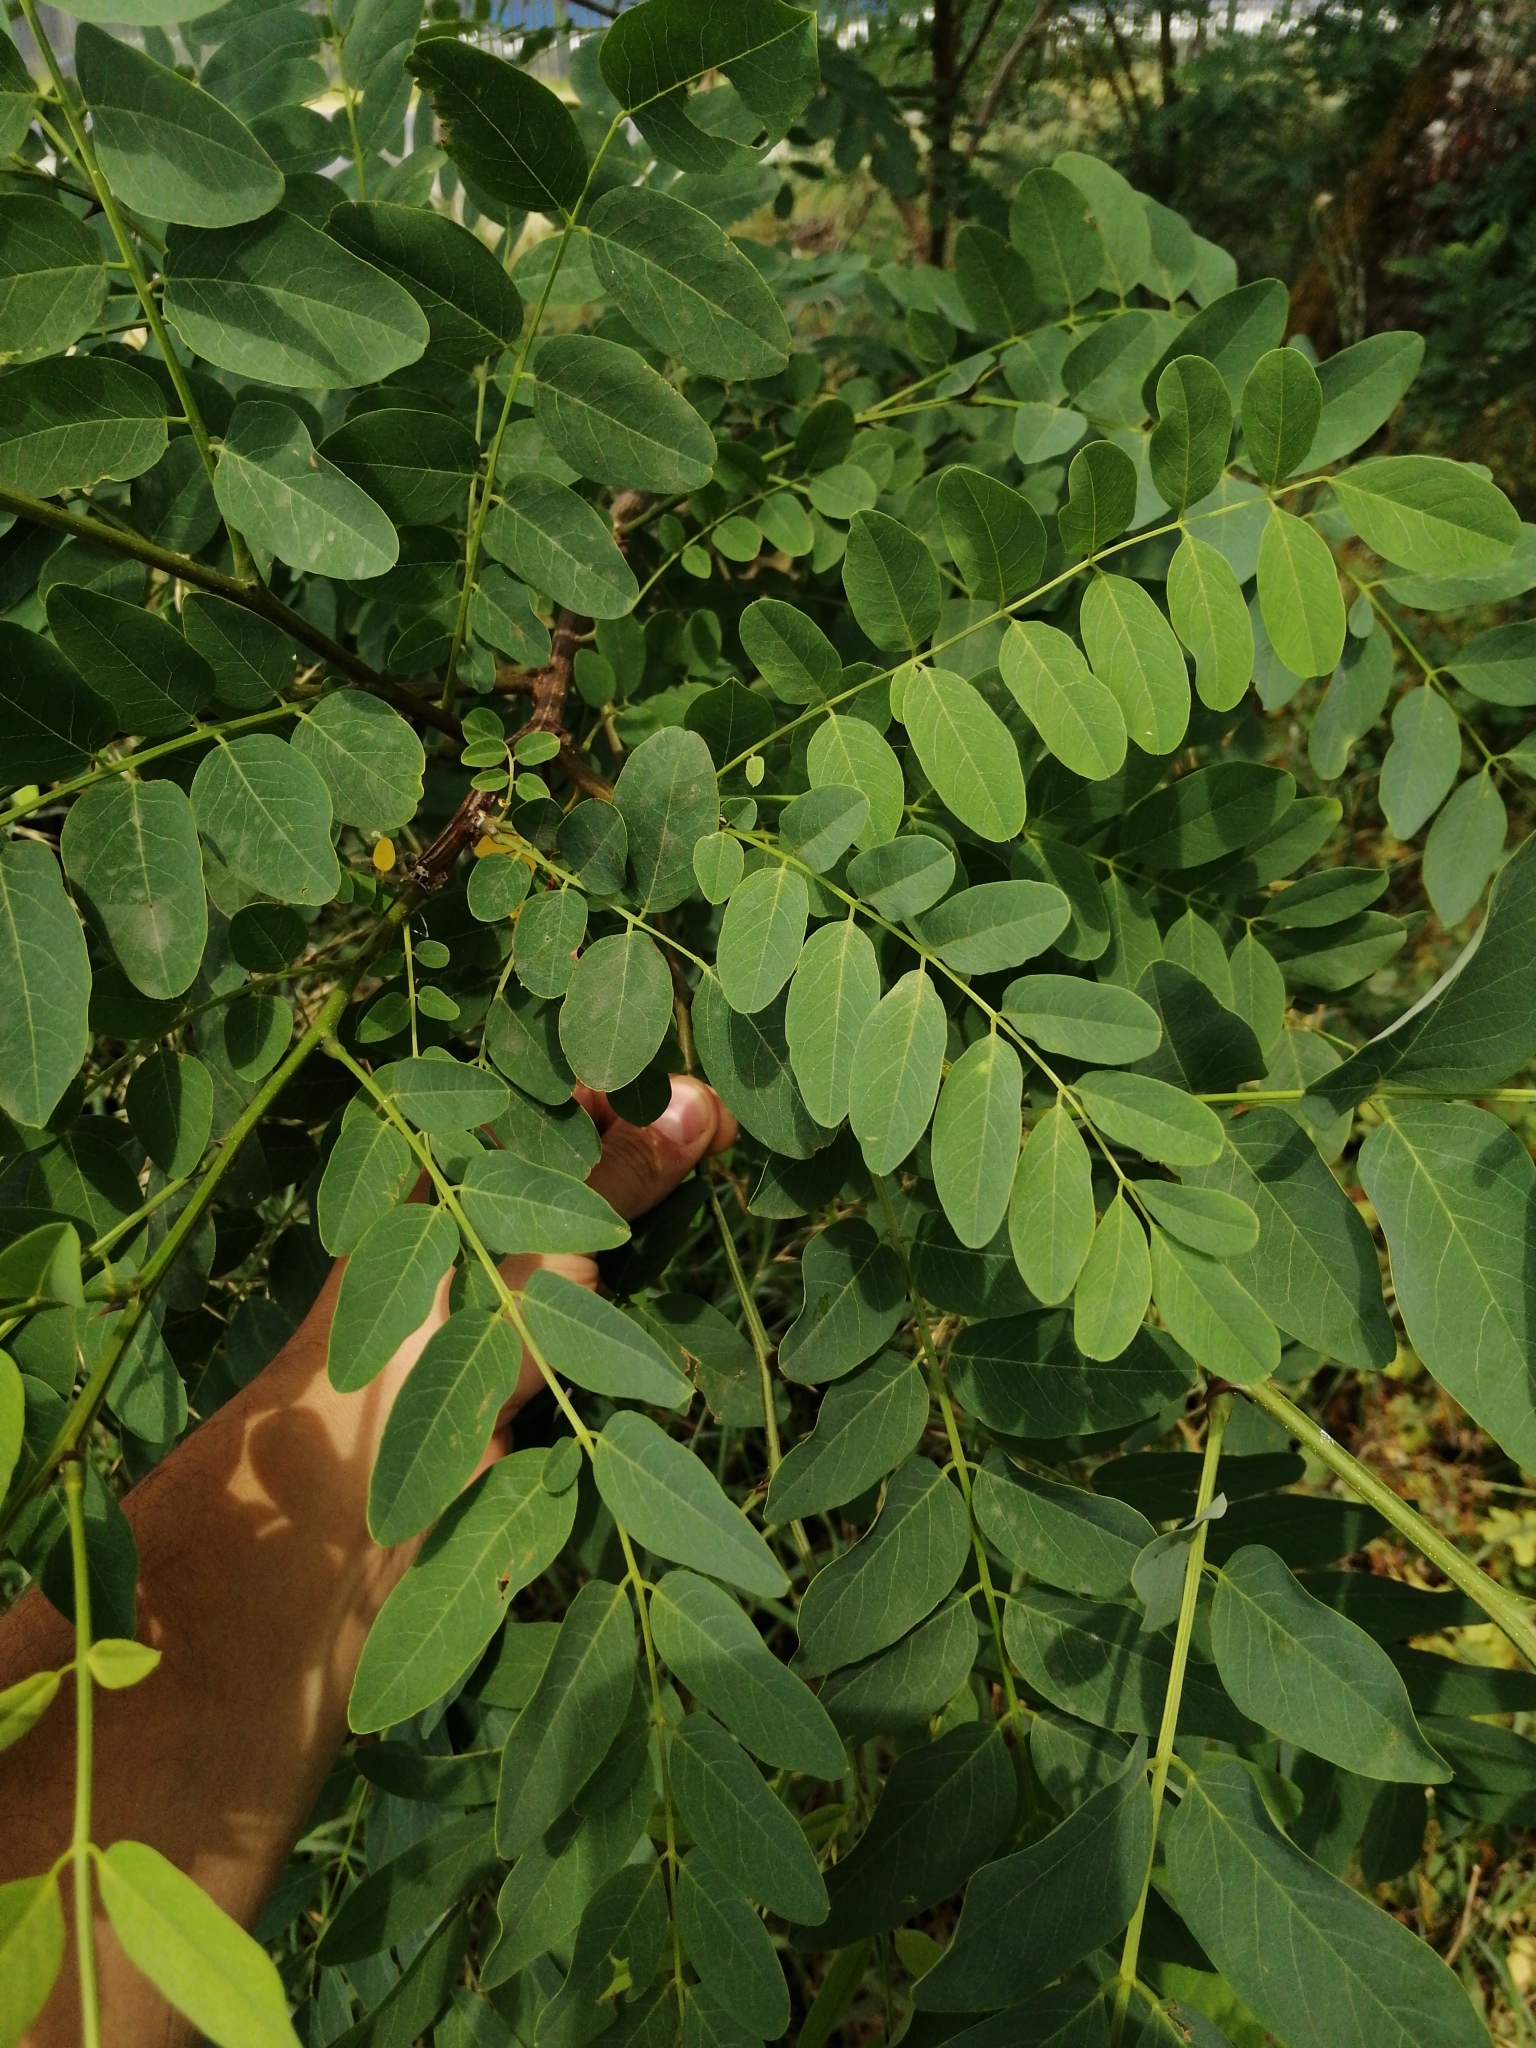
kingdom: Plantae
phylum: Tracheophyta
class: Magnoliopsida
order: Fabales
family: Fabaceae
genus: Robinia
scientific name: Robinia pseudoacacia
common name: Black locust
